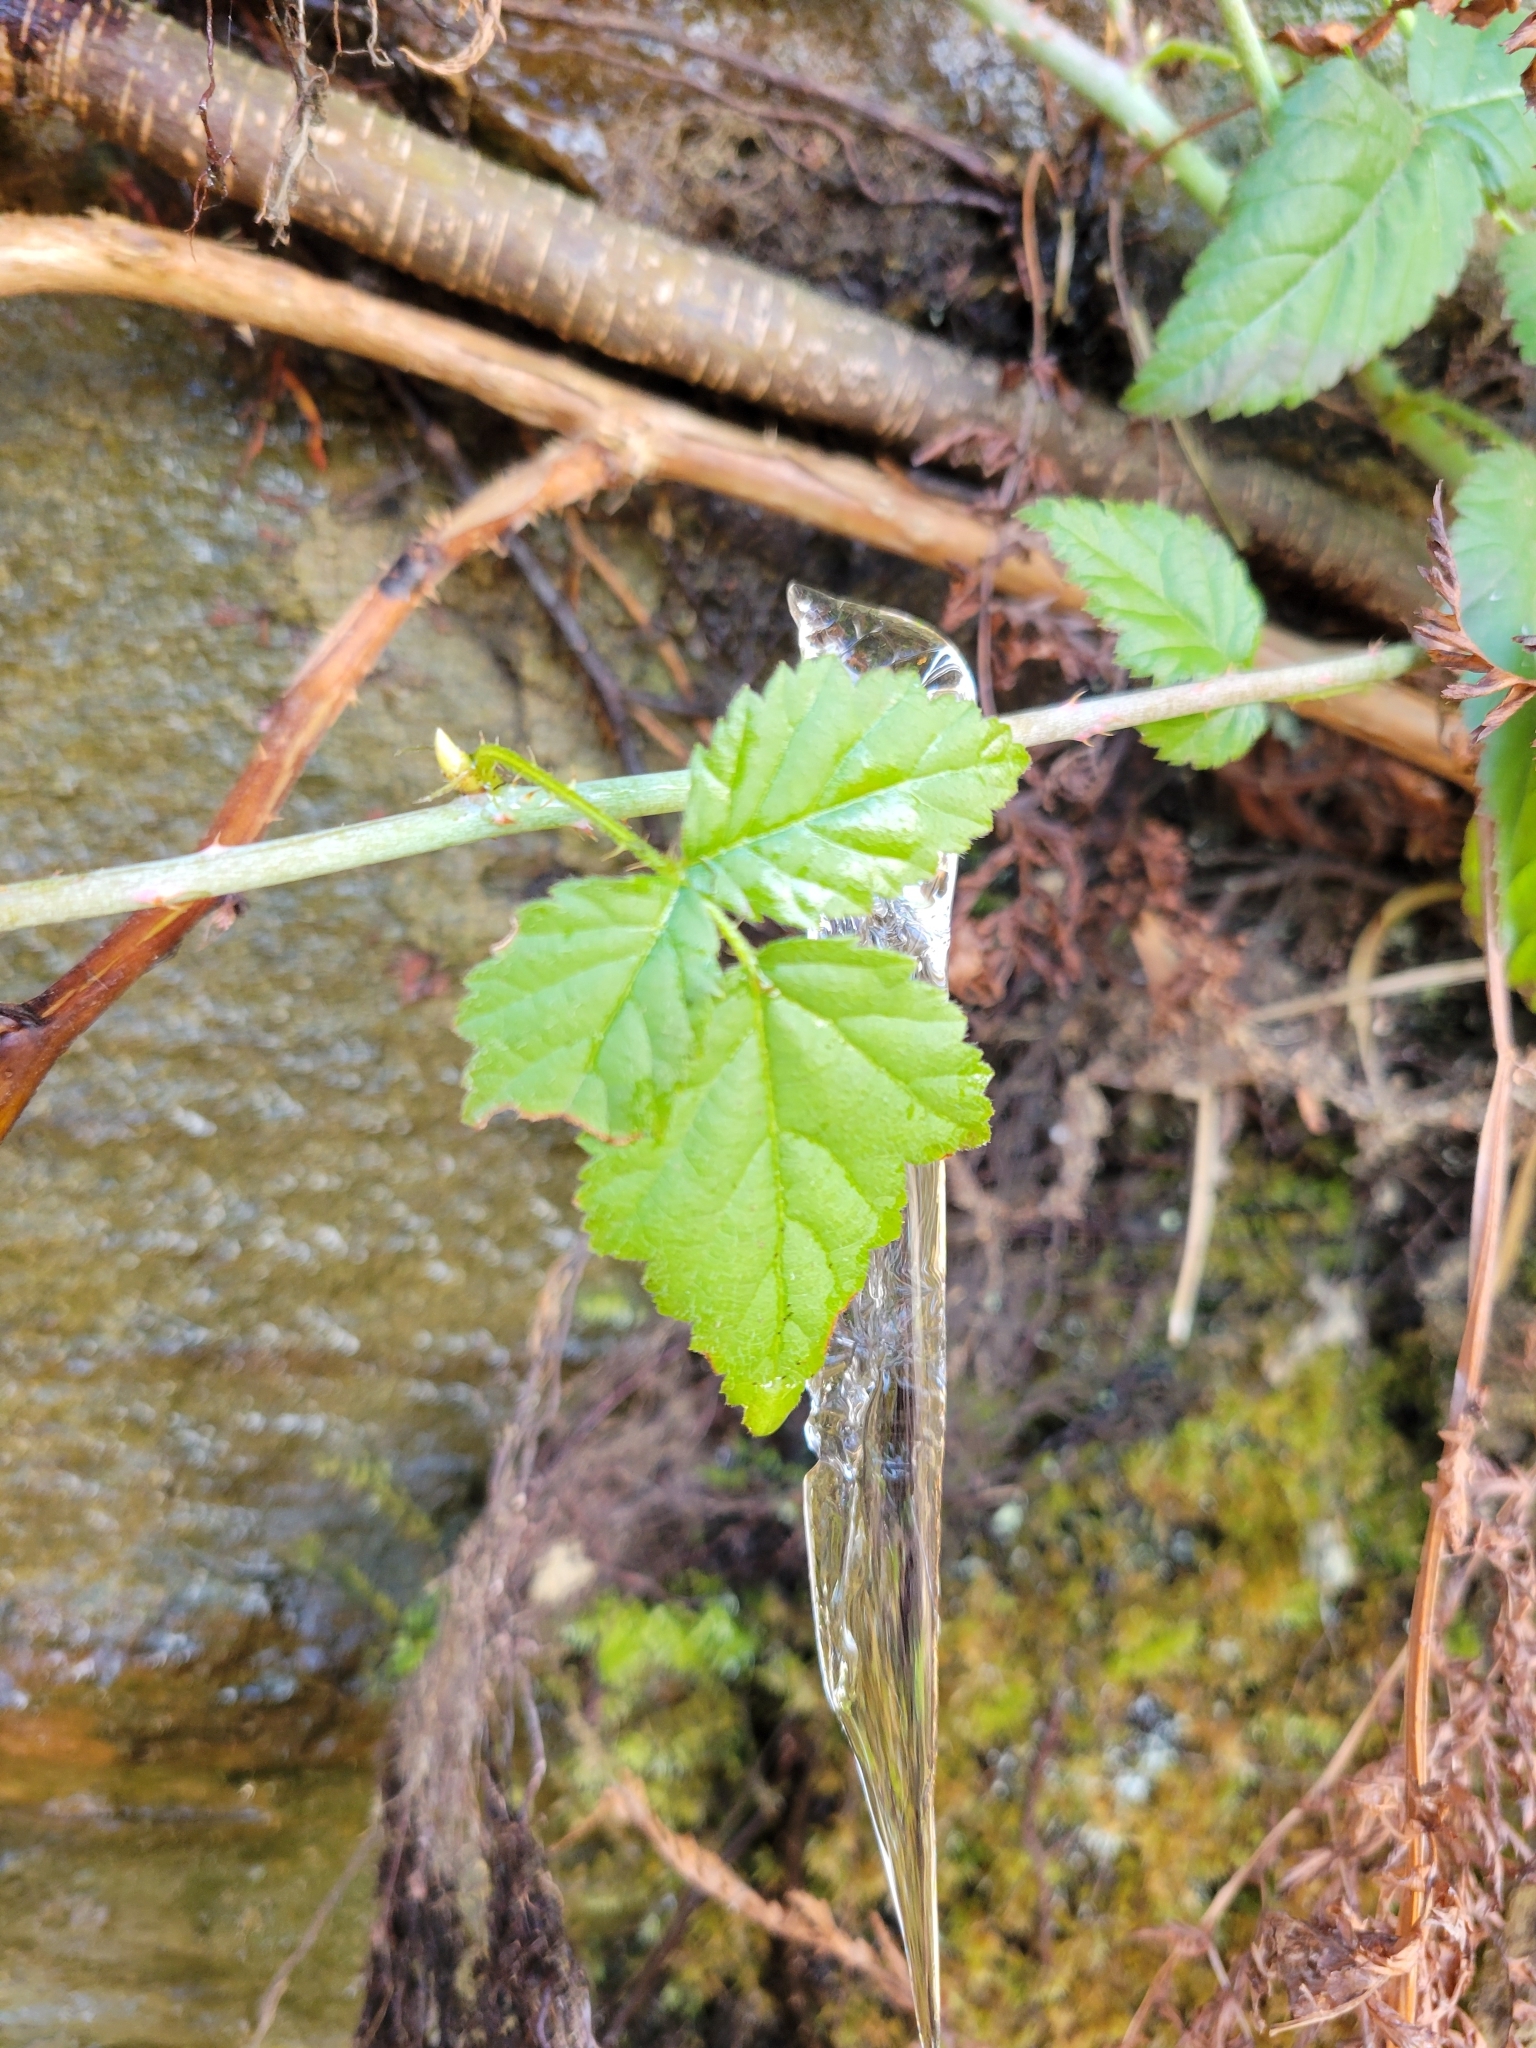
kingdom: Plantae
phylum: Tracheophyta
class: Magnoliopsida
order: Rosales
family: Rosaceae
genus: Rubus
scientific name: Rubus ursinus
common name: Pacific blackberry
